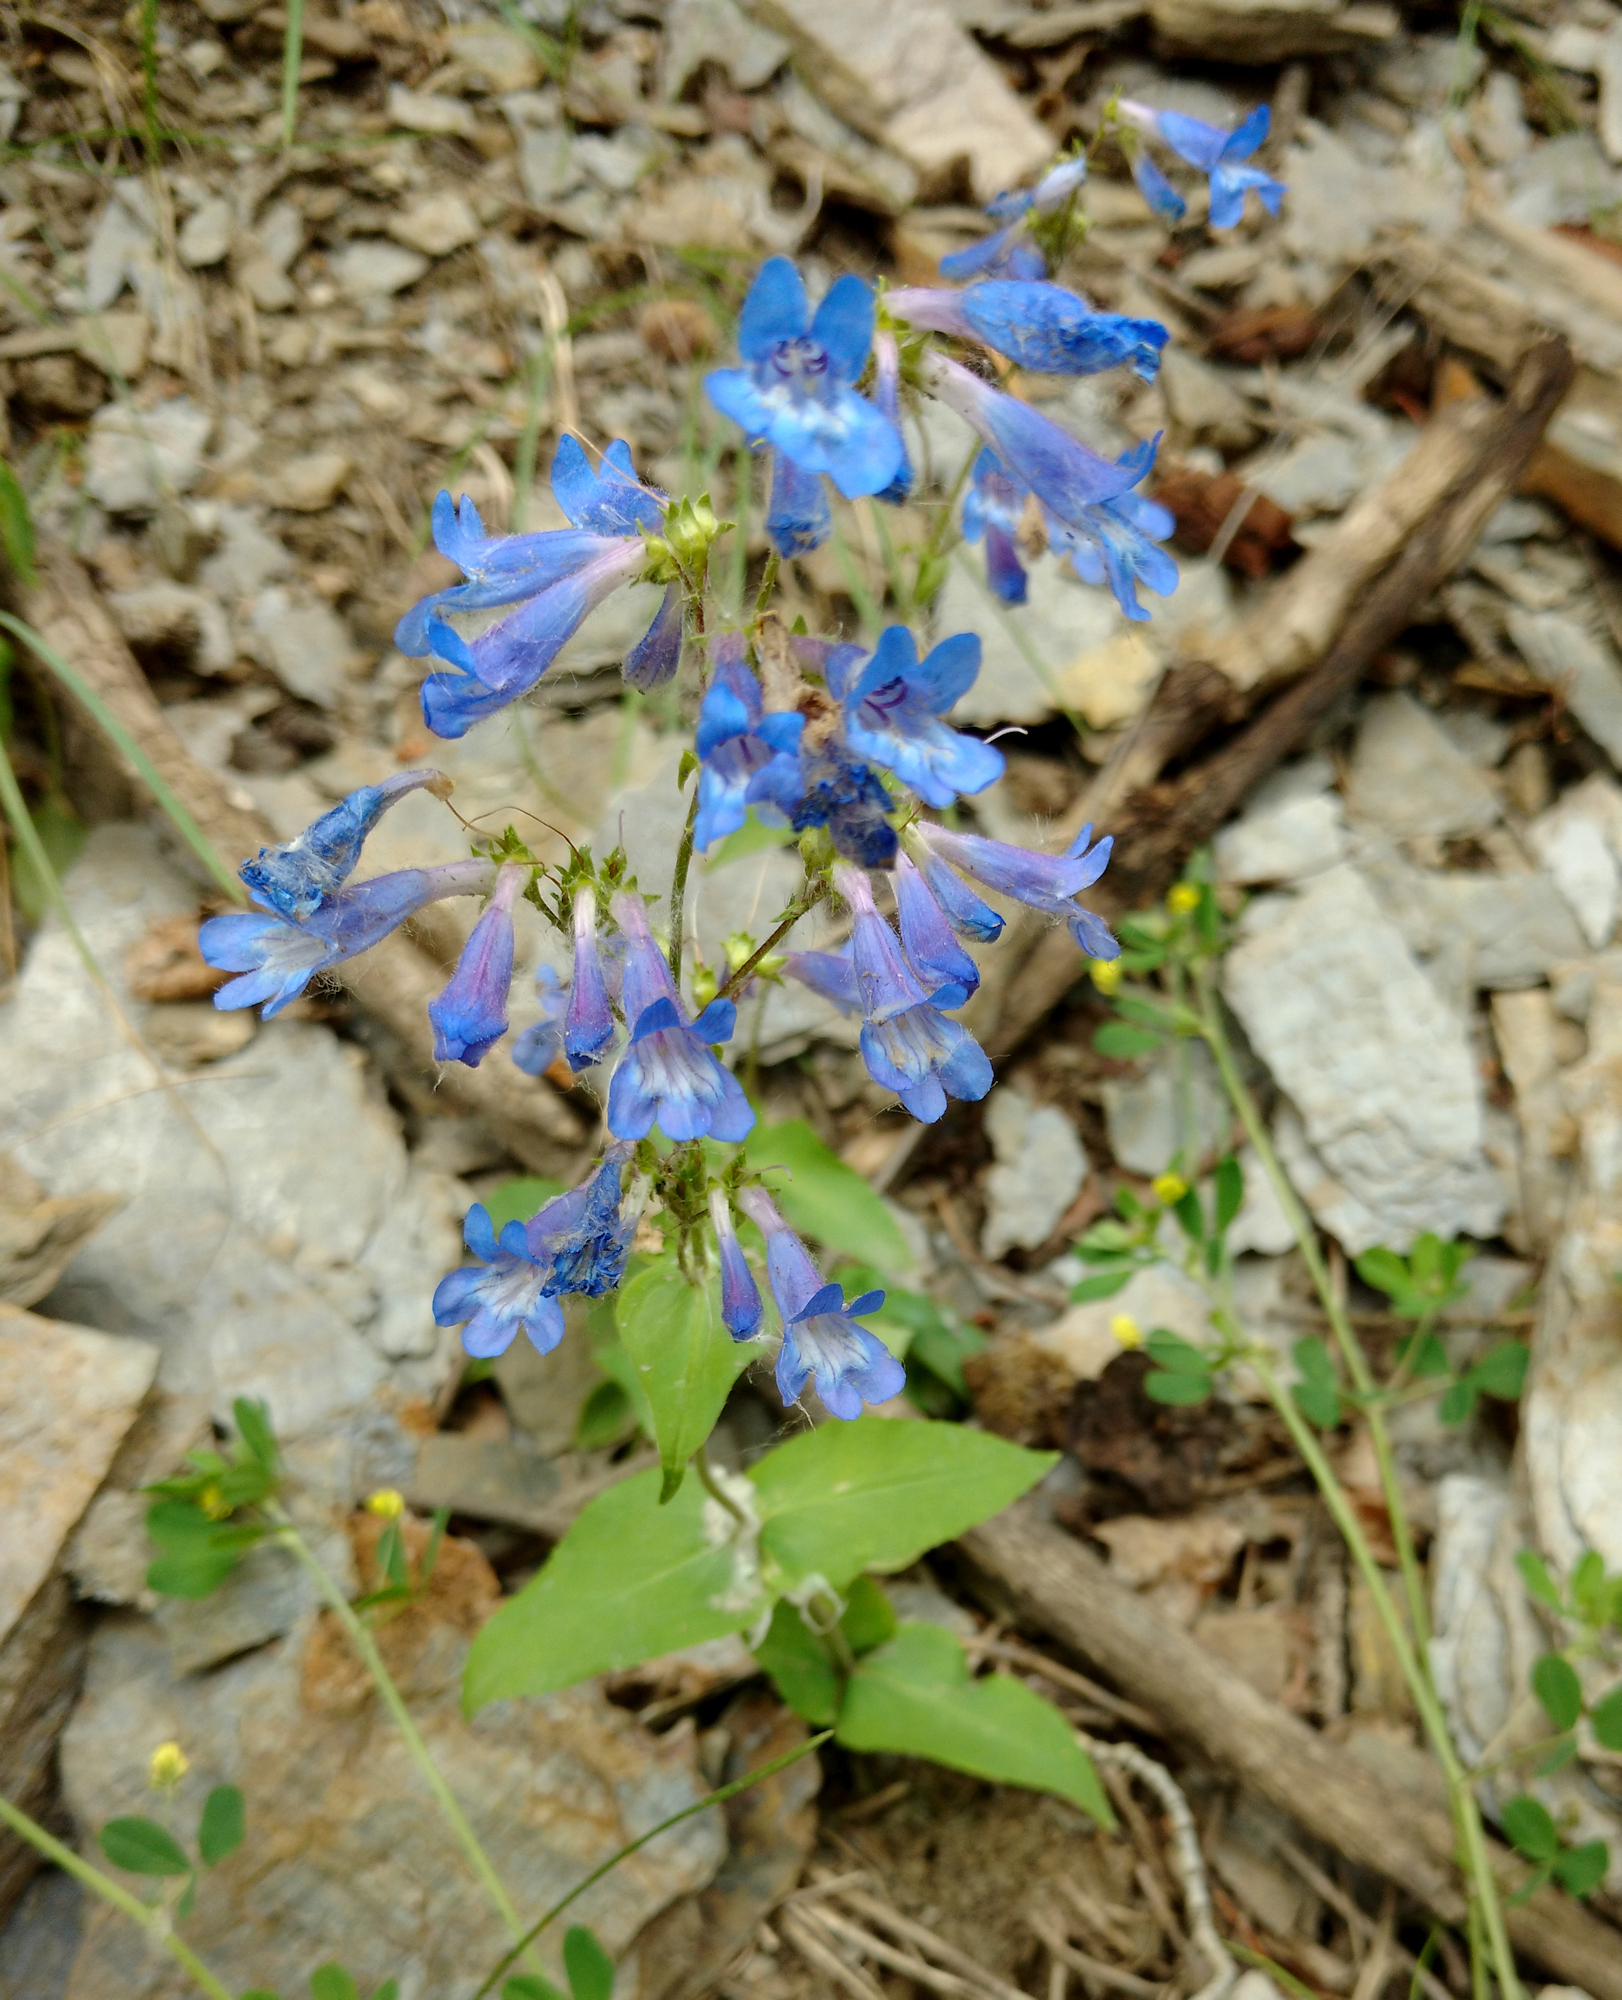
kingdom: Plantae
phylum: Tracheophyta
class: Magnoliopsida
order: Lamiales
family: Plantaginaceae
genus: Penstemon
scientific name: Penstemon humilis
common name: Low penstemon
